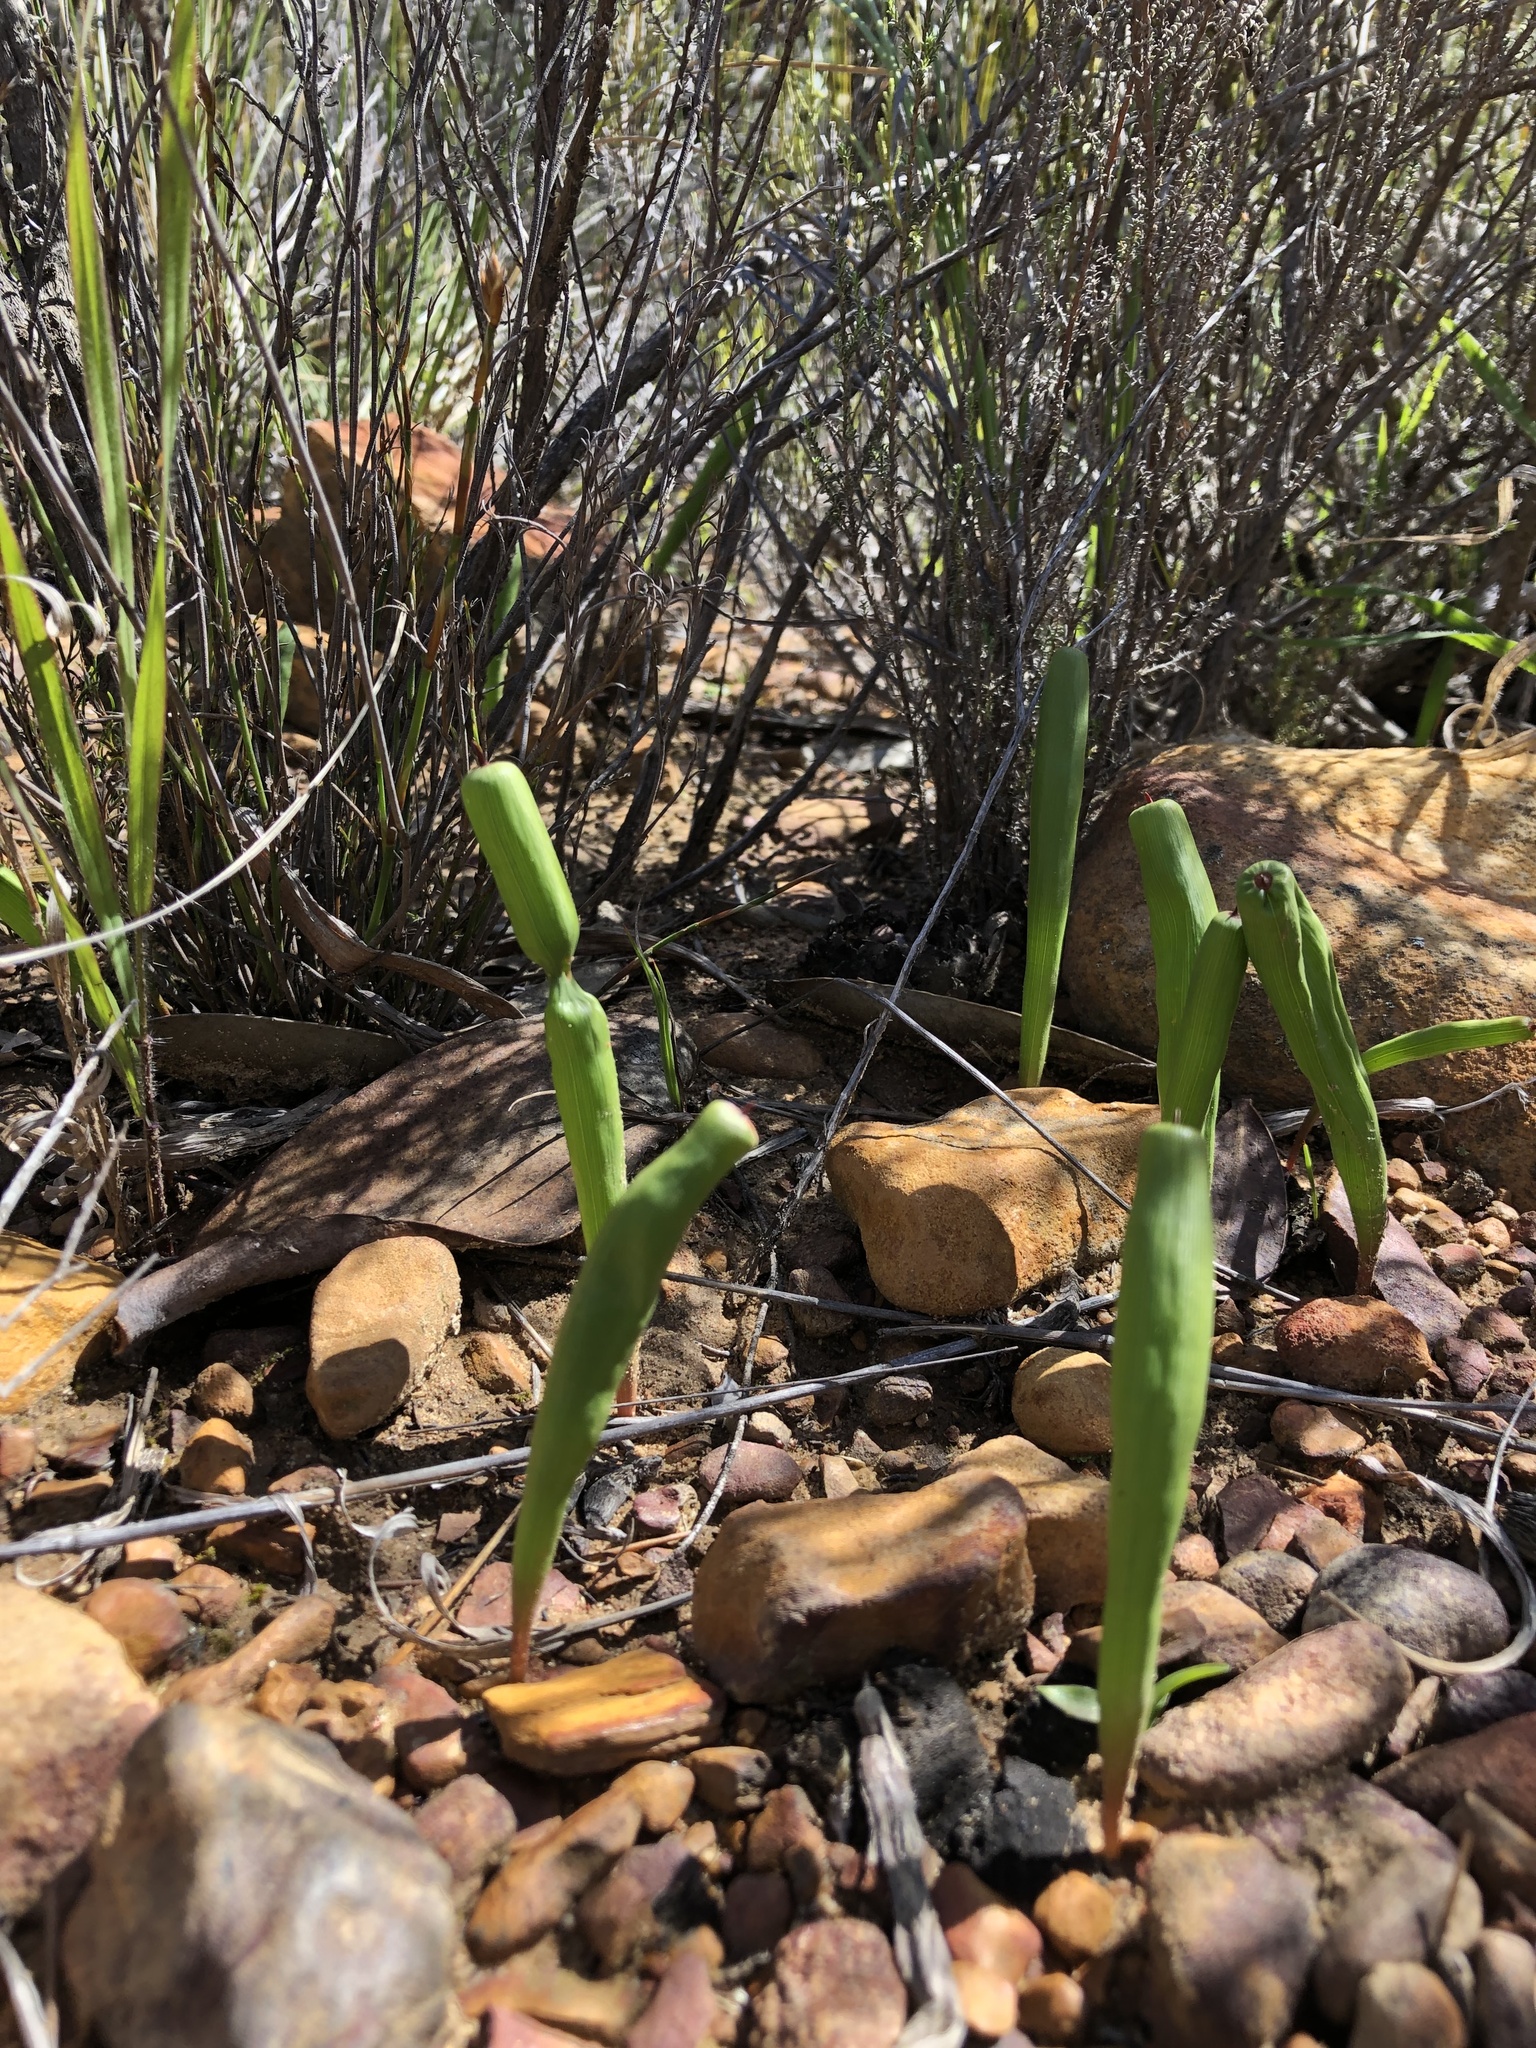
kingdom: Plantae
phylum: Tracheophyta
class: Liliopsida
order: Asparagales
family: Iridaceae
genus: Micranthus
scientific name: Micranthus tubulosus
